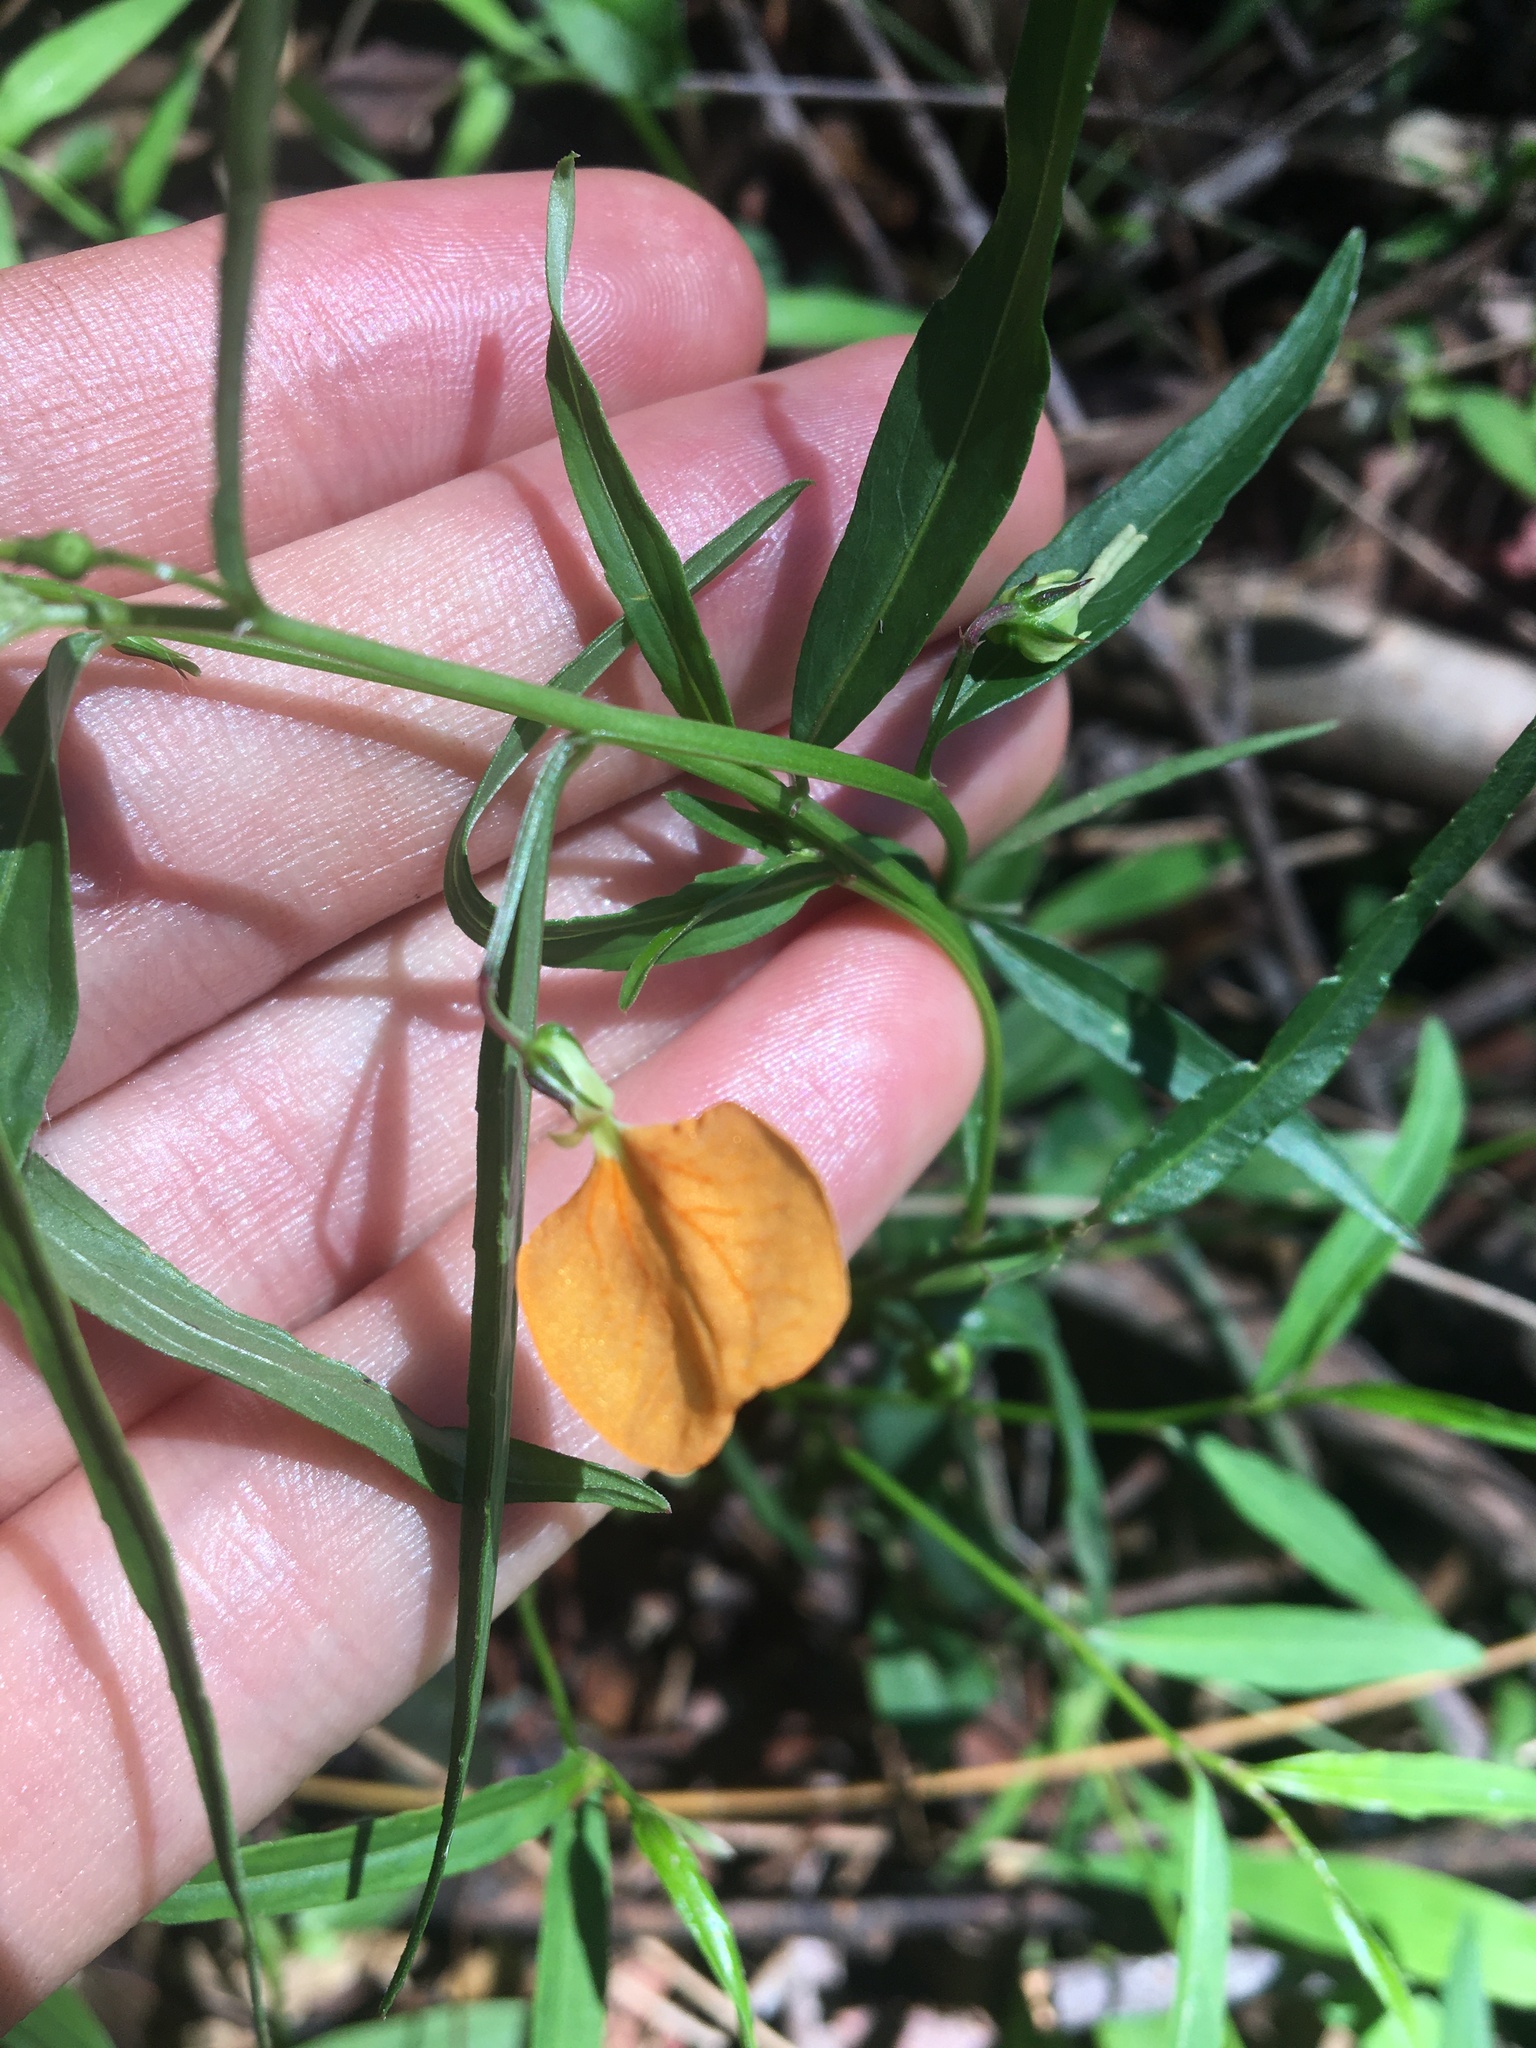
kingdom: Plantae
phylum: Tracheophyta
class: Magnoliopsida
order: Malpighiales
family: Violaceae
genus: Pigea
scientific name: Pigea stellarioides
